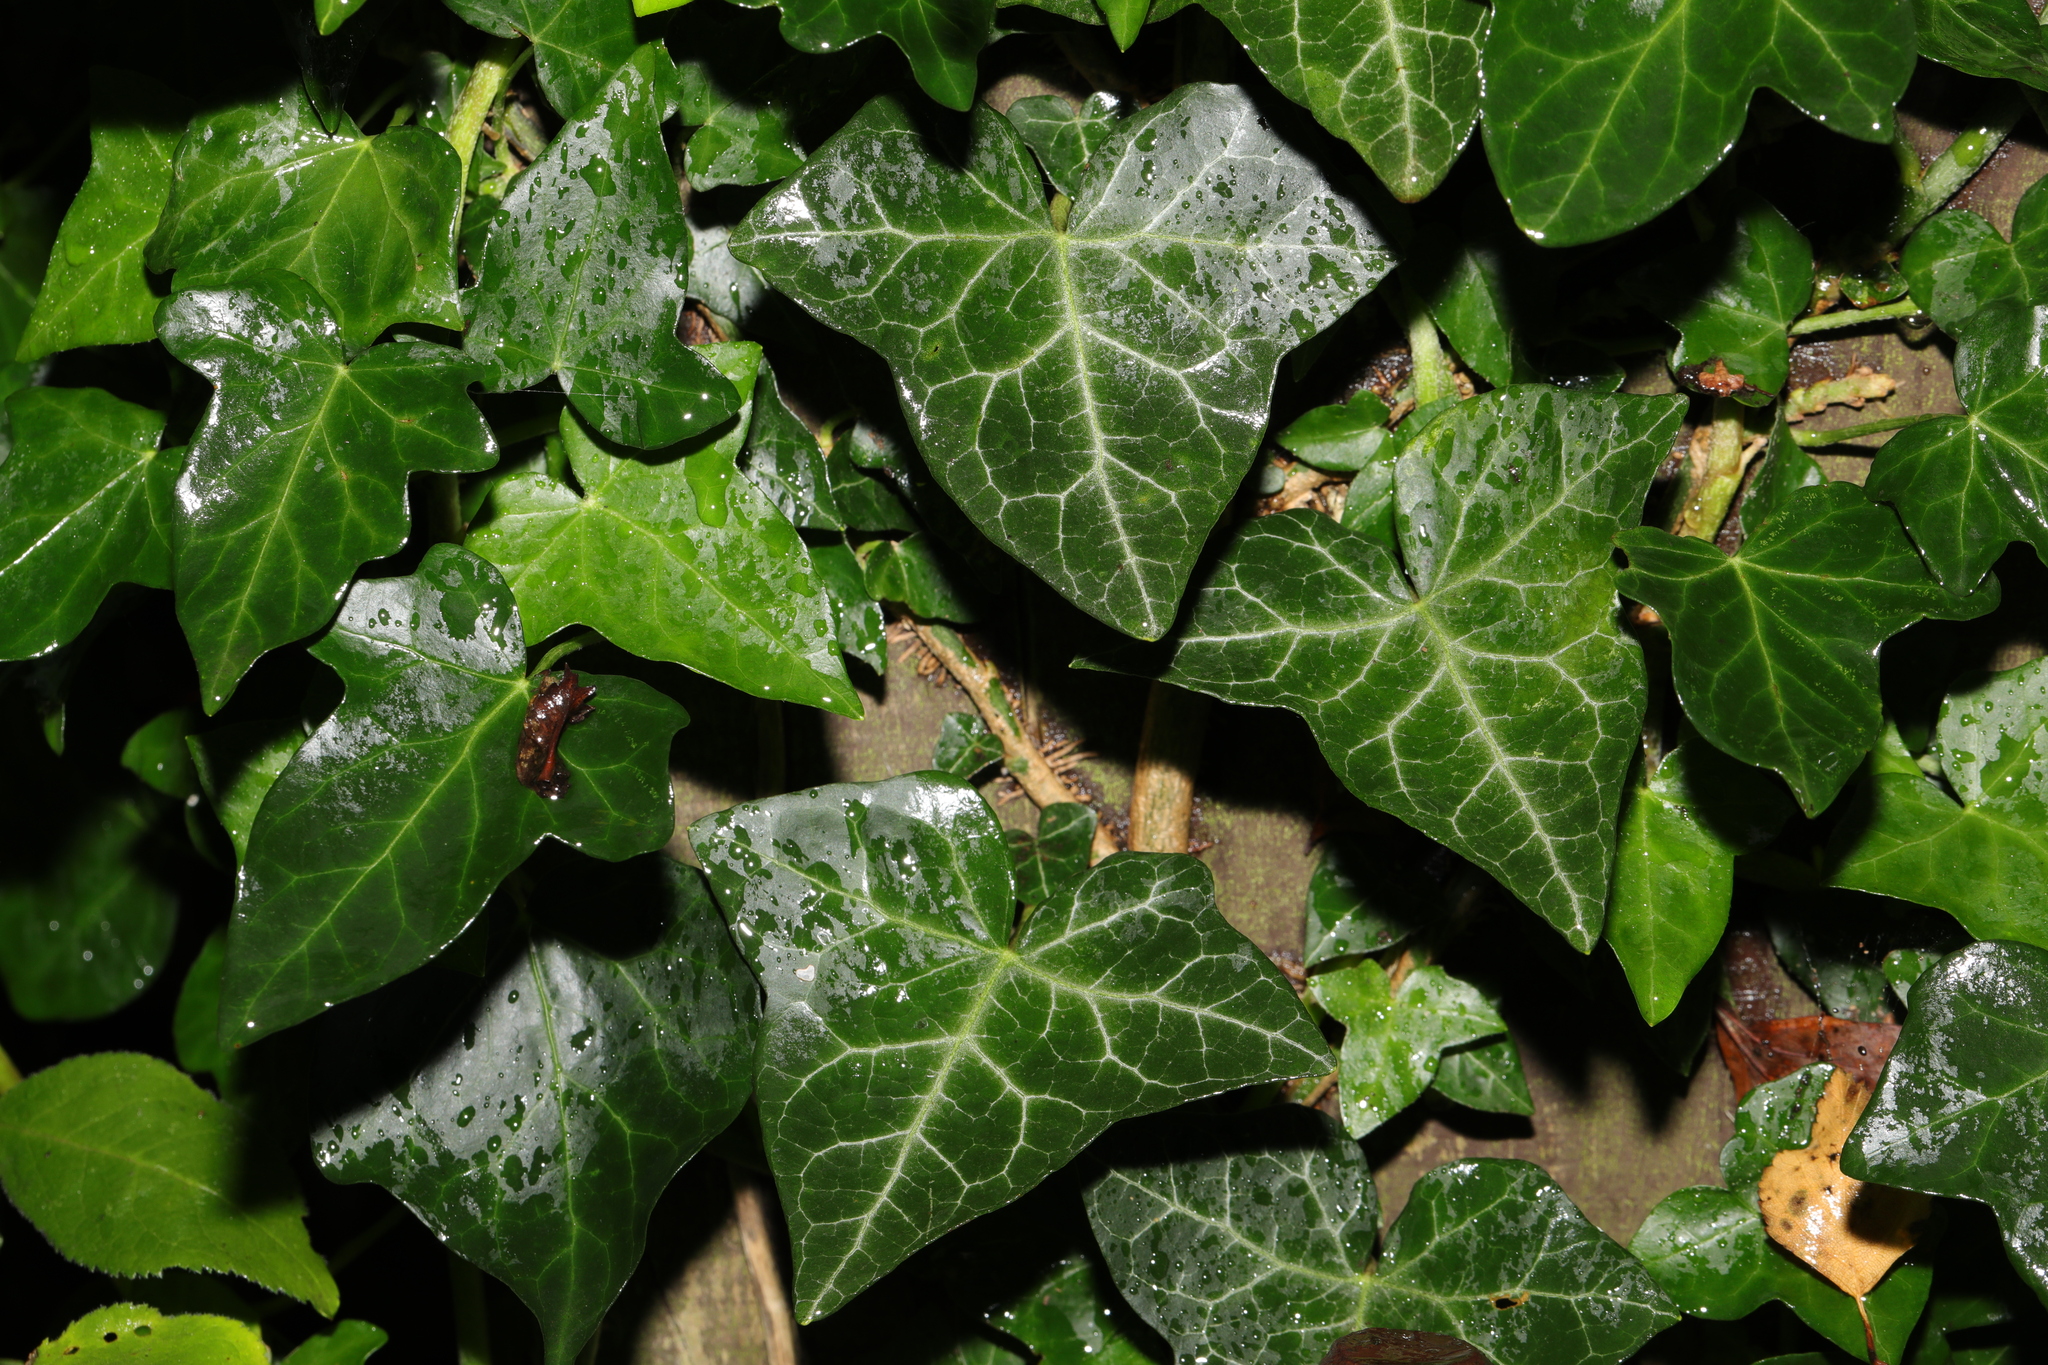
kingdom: Plantae
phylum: Tracheophyta
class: Magnoliopsida
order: Apiales
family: Araliaceae
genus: Hedera
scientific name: Hedera helix
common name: Ivy
